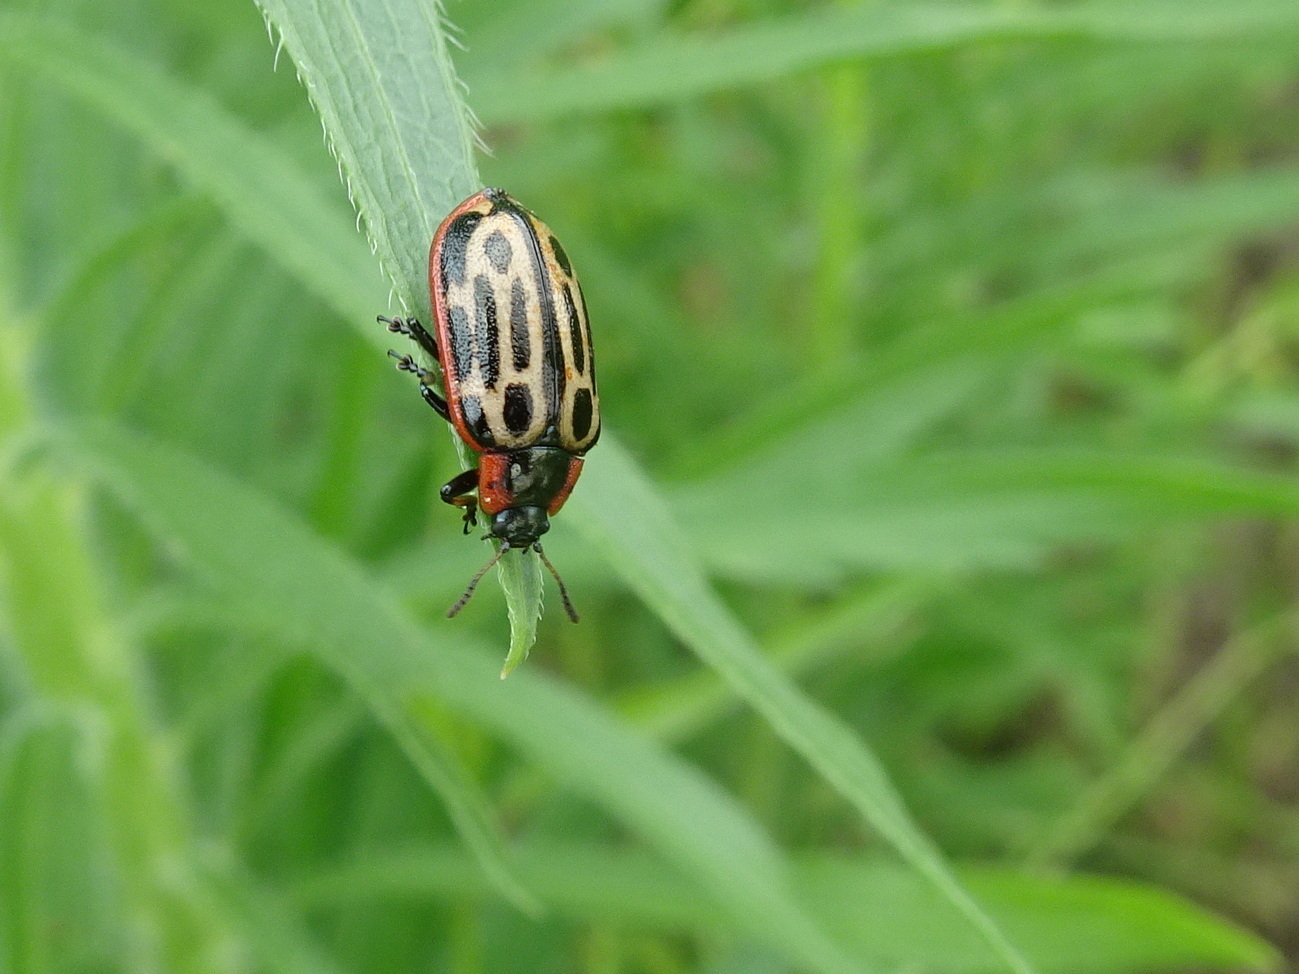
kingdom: Animalia
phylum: Arthropoda
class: Insecta
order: Coleoptera
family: Chrysomelidae
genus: Aethiopocassis
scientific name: Aethiopocassis scripta
